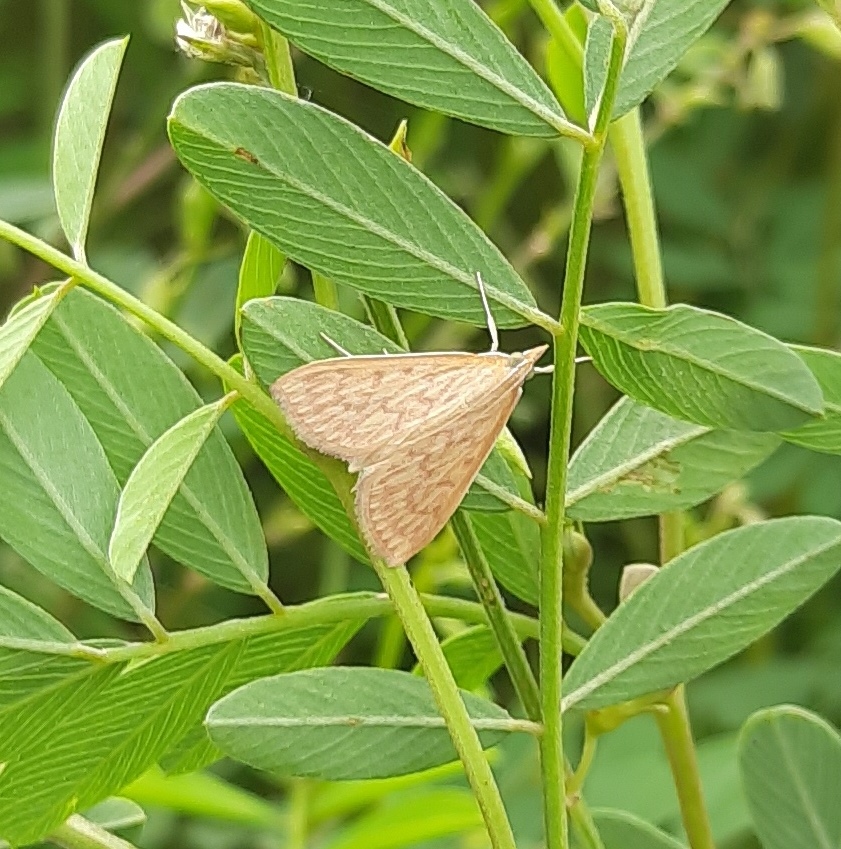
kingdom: Animalia
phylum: Arthropoda
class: Insecta
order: Lepidoptera
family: Crambidae
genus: Paliga
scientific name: Paliga damastesalis
